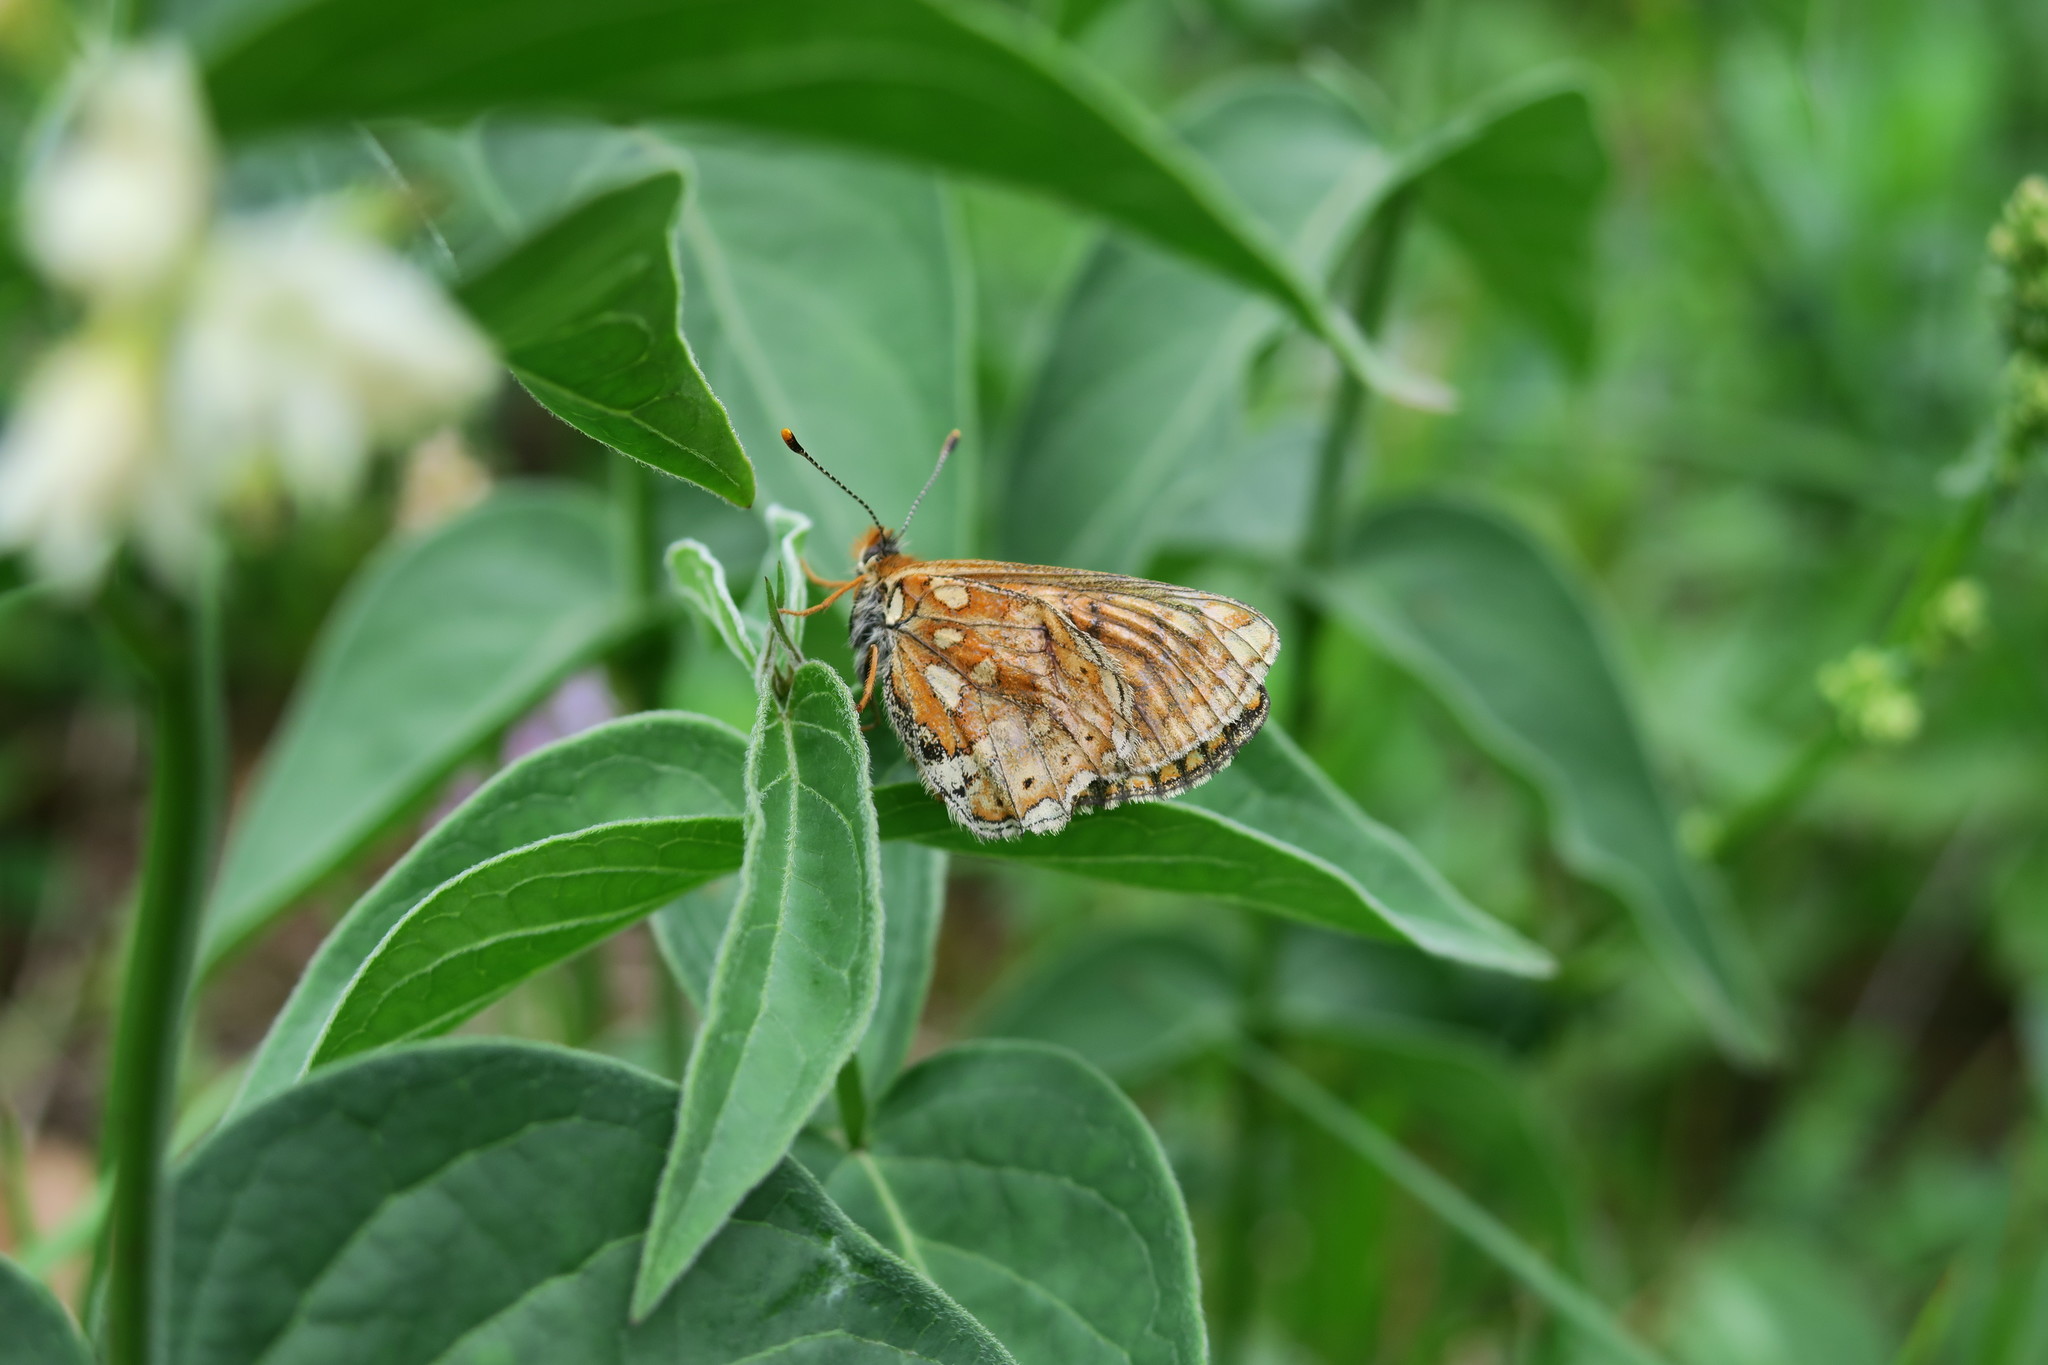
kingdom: Animalia
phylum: Arthropoda
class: Insecta
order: Lepidoptera
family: Nymphalidae
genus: Euphydryas
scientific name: Euphydryas aurinia
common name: Marsh fritillary
